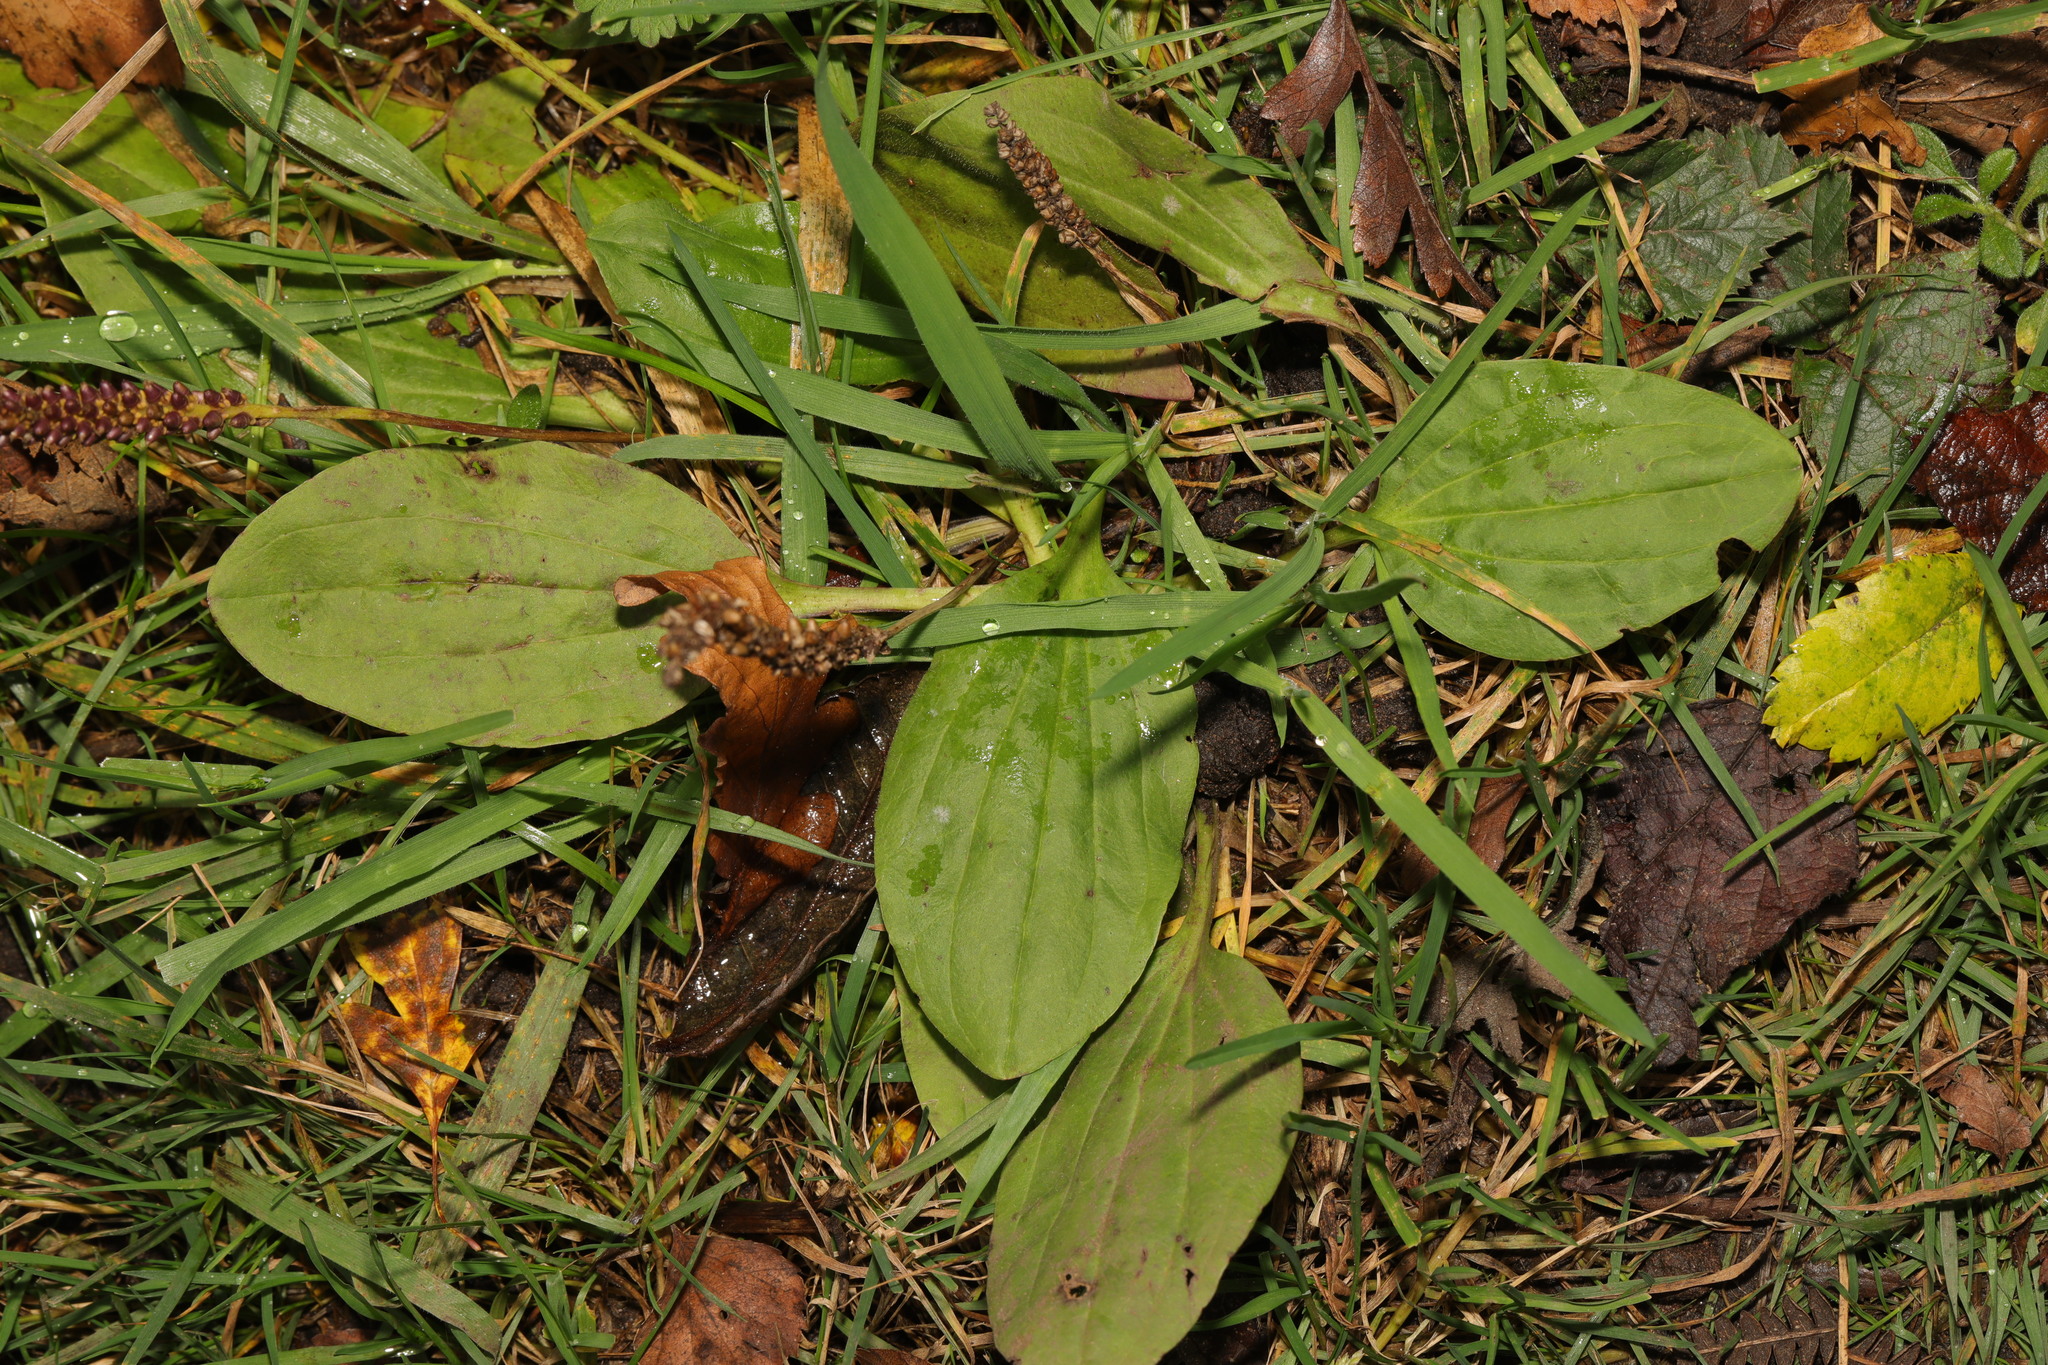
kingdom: Plantae
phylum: Tracheophyta
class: Magnoliopsida
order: Lamiales
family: Plantaginaceae
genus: Plantago
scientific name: Plantago major
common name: Common plantain
